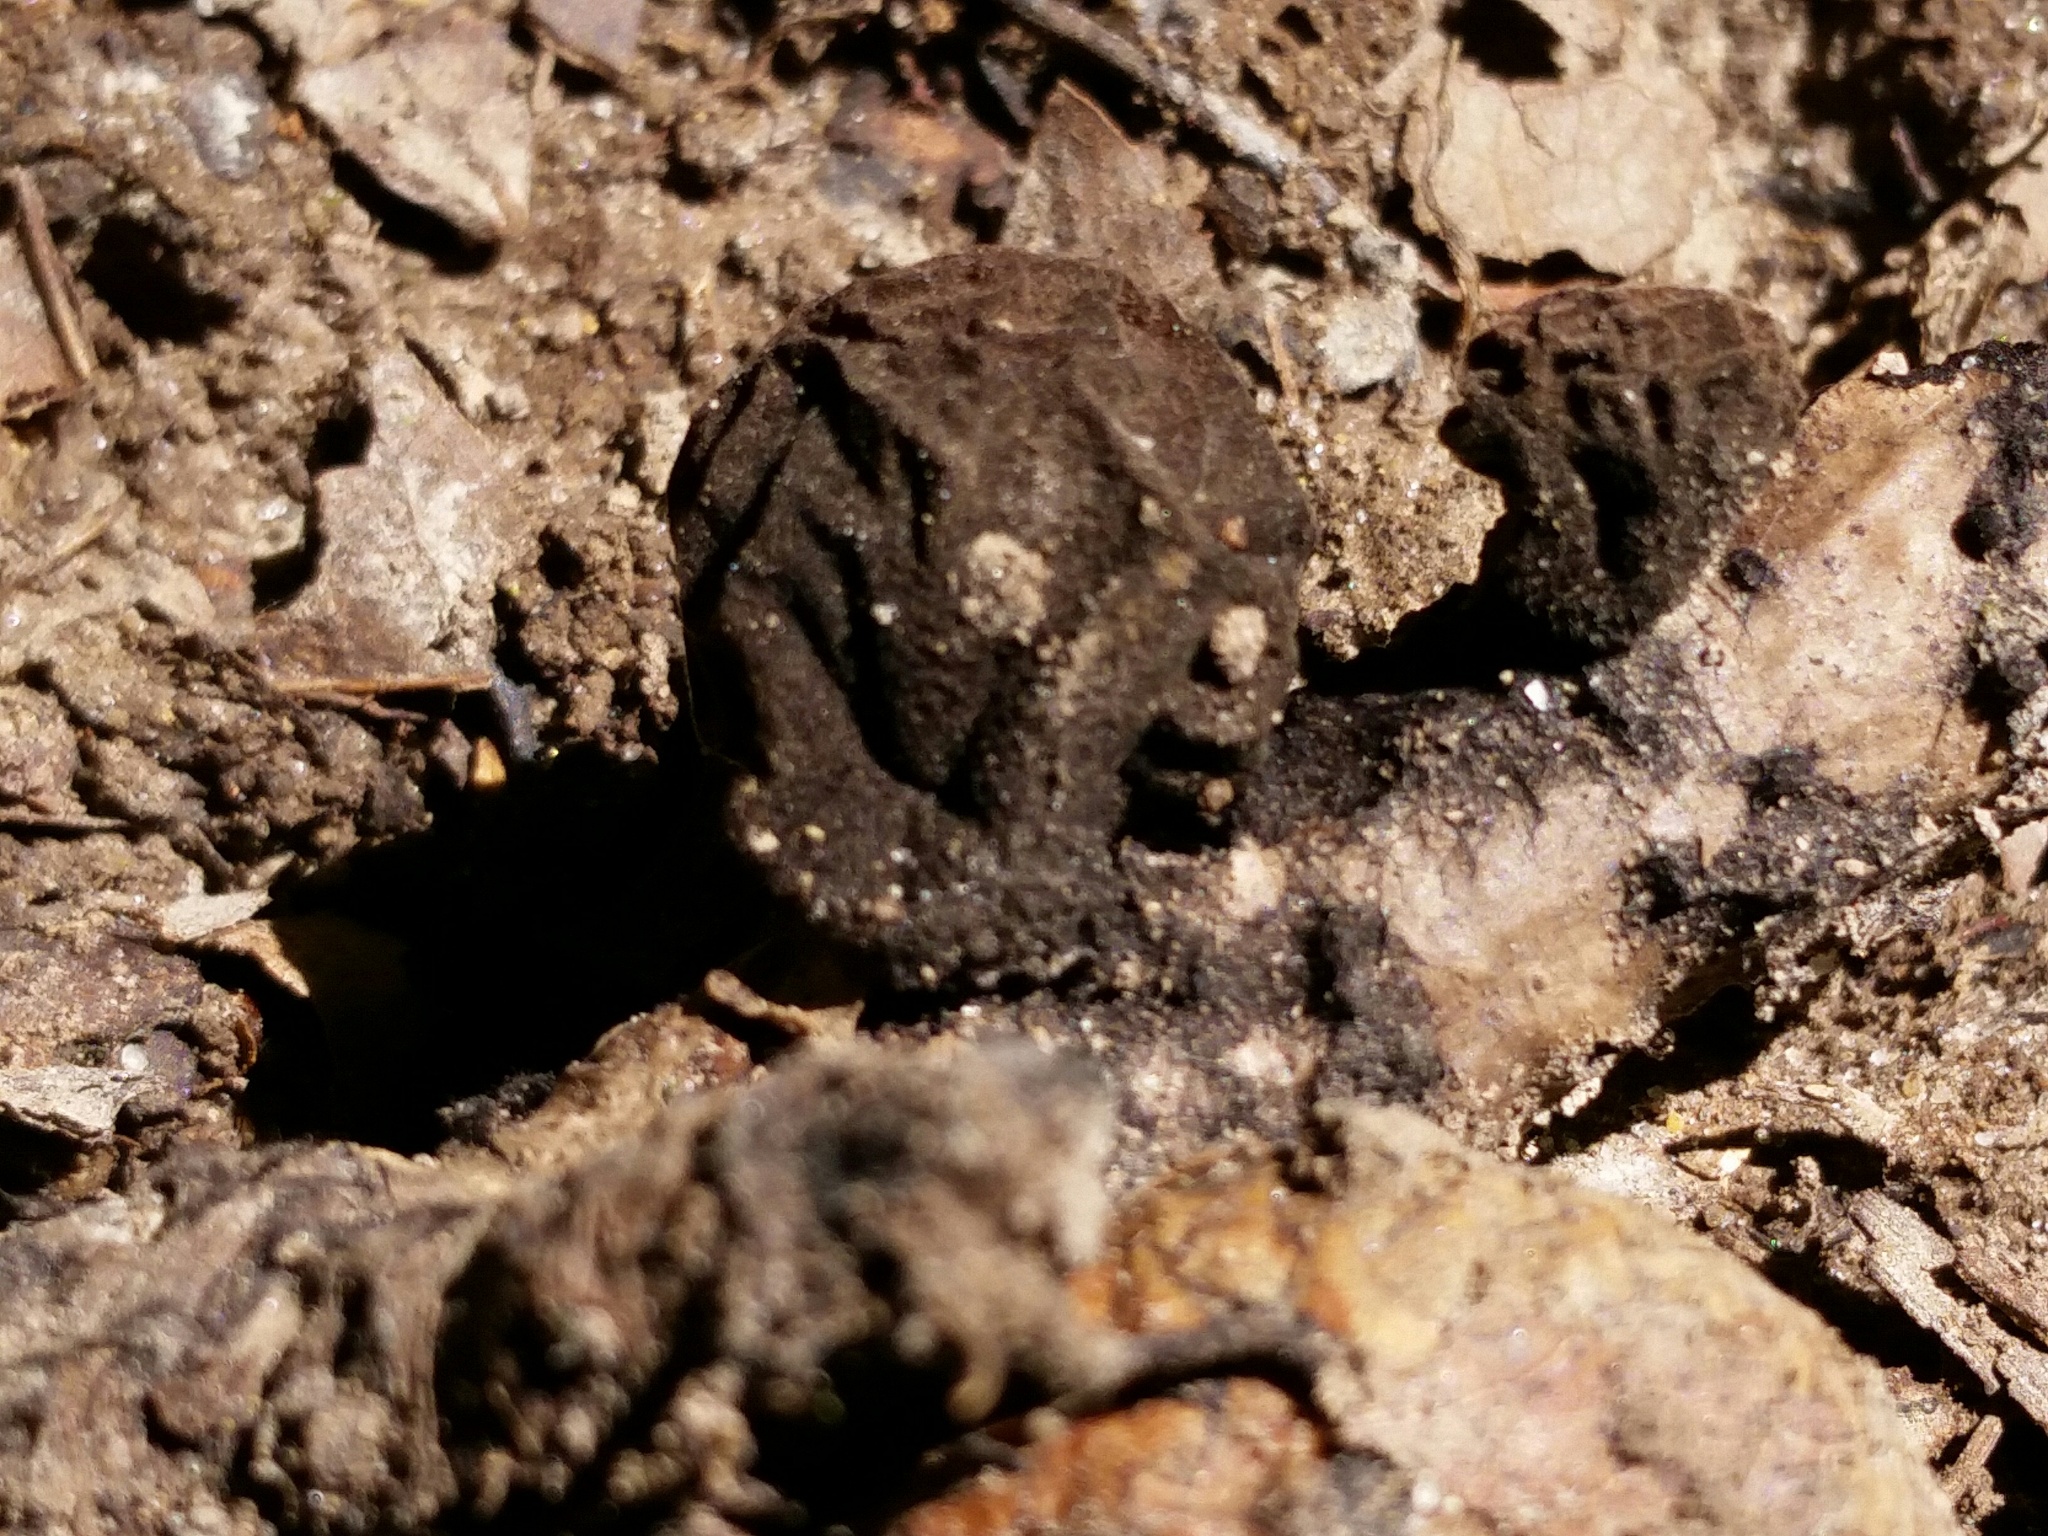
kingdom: Fungi
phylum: Ascomycota
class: Pezizomycetes
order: Pezizales
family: Sarcosomataceae
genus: Galiella
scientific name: Galiella rufa
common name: Hairy rubber cup
